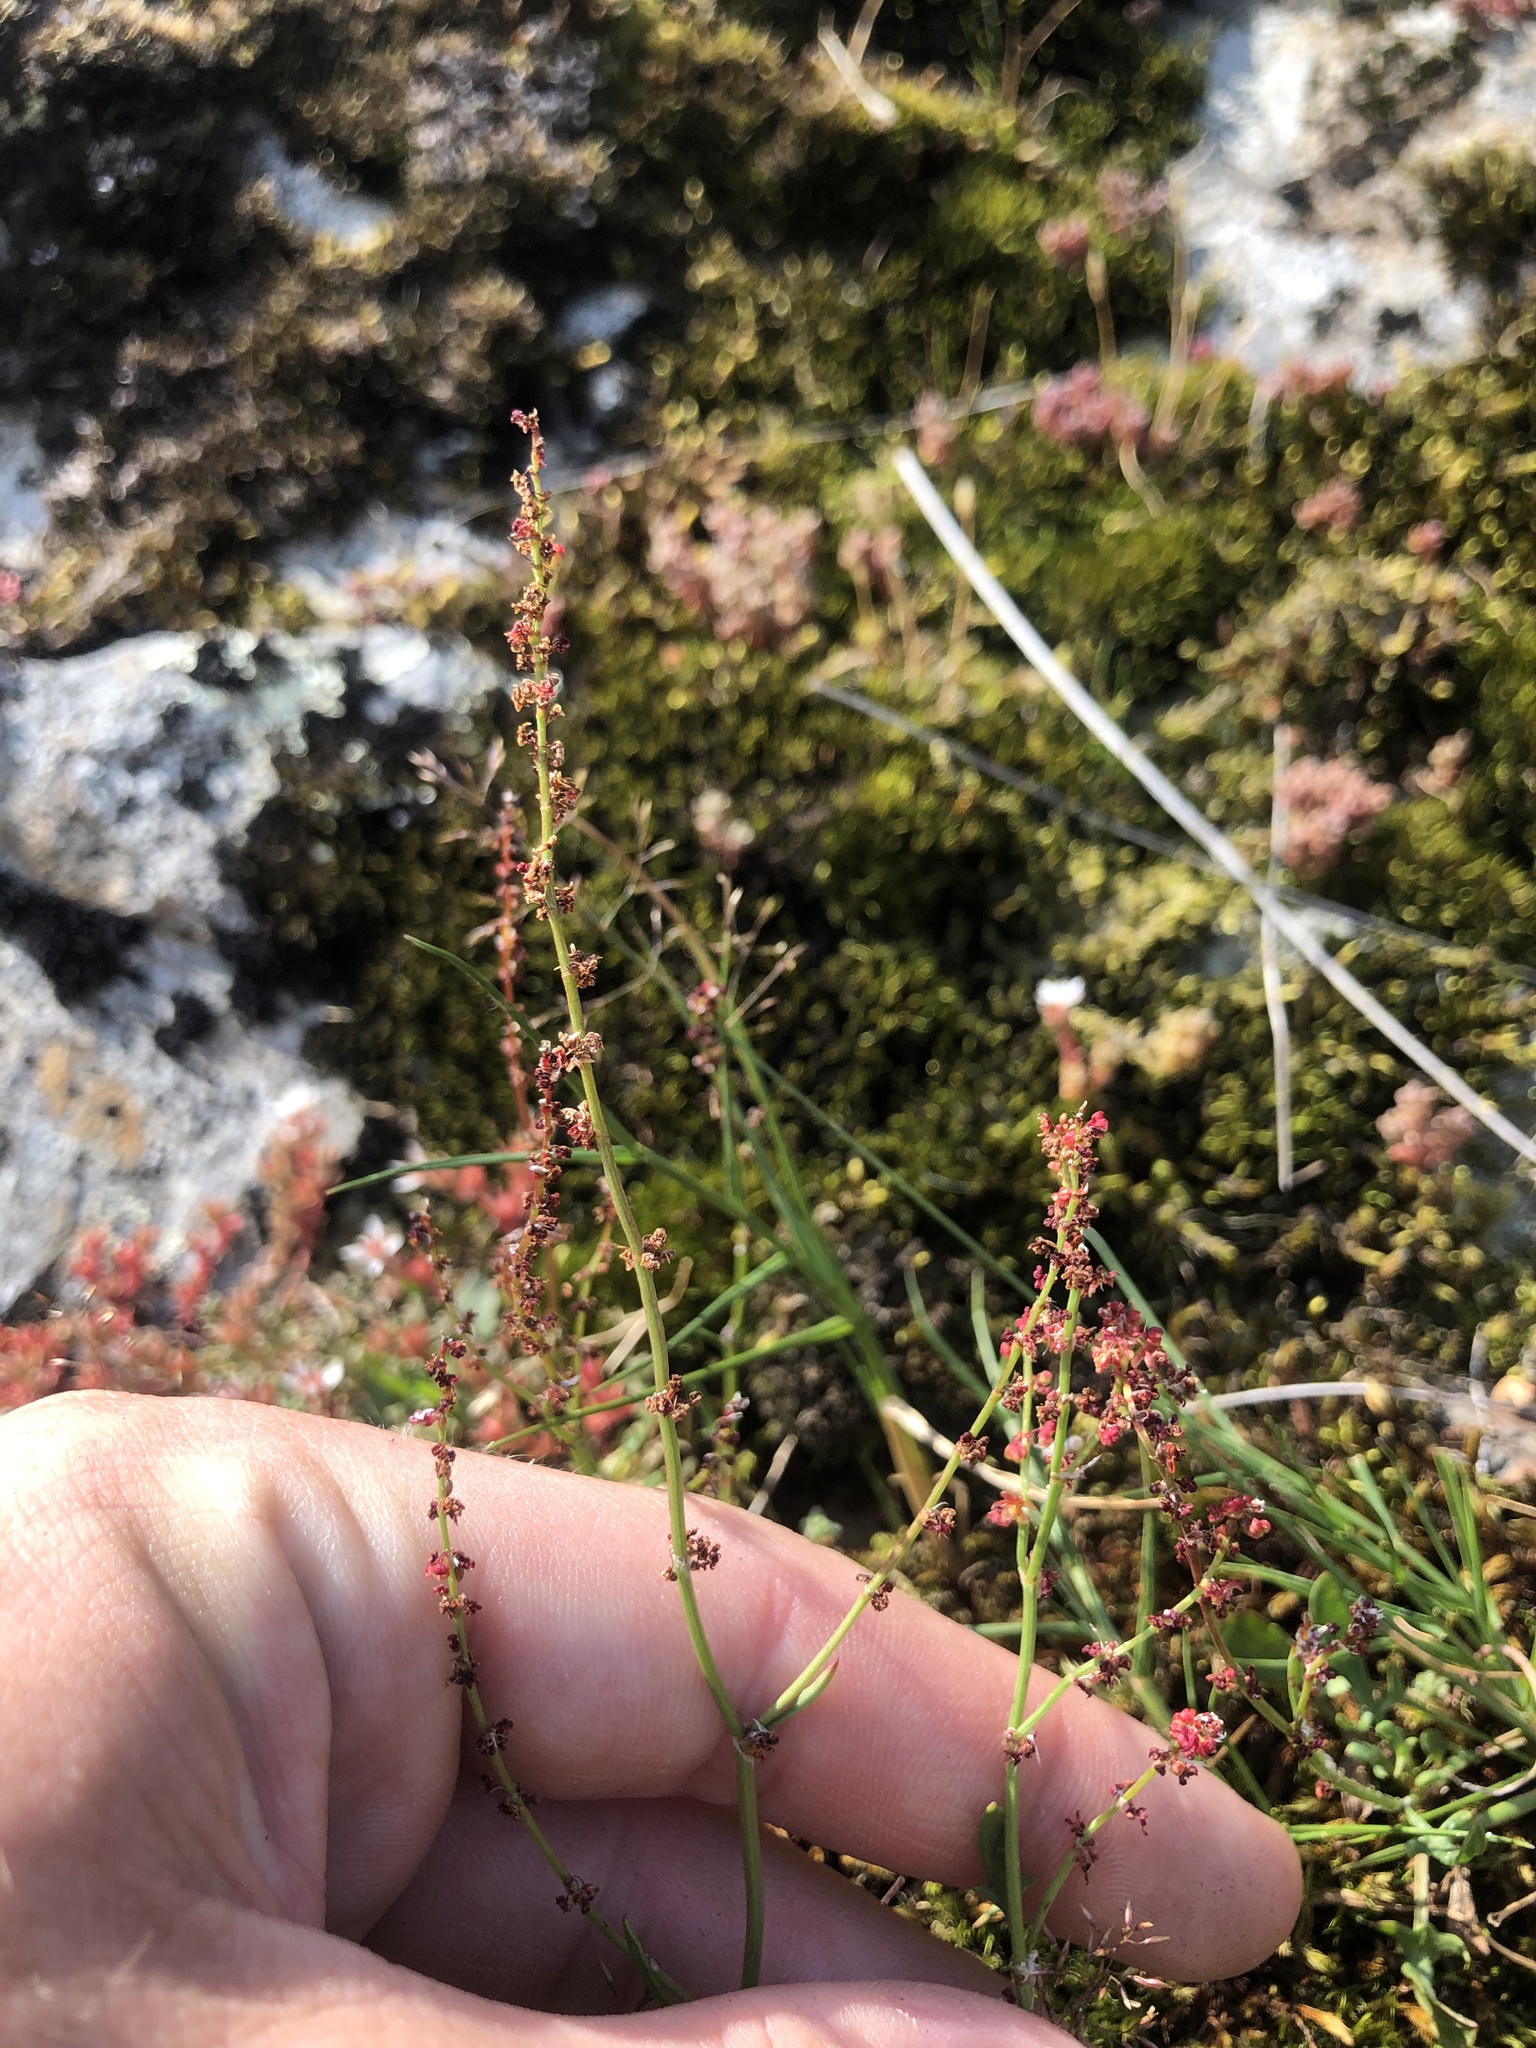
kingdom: Plantae
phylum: Tracheophyta
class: Magnoliopsida
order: Caryophyllales
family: Polygonaceae
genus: Rumex
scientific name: Rumex acetosella
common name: Common sheep sorrel
